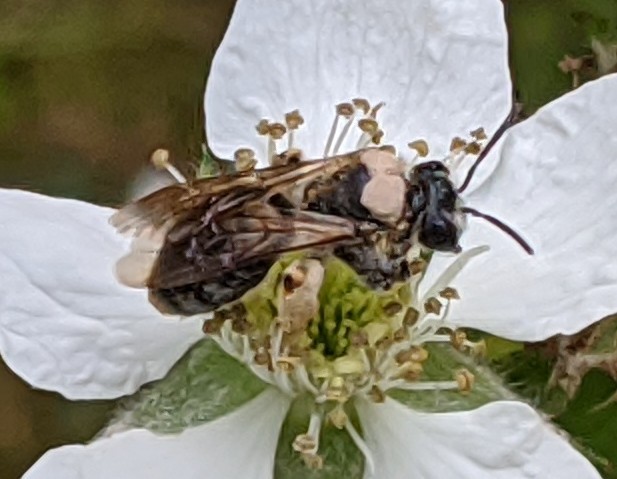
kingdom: Animalia
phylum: Arthropoda
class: Insecta
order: Hymenoptera
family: Andrenidae
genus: Andrena
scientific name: Andrena haemorrhoa
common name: Early mining bee
